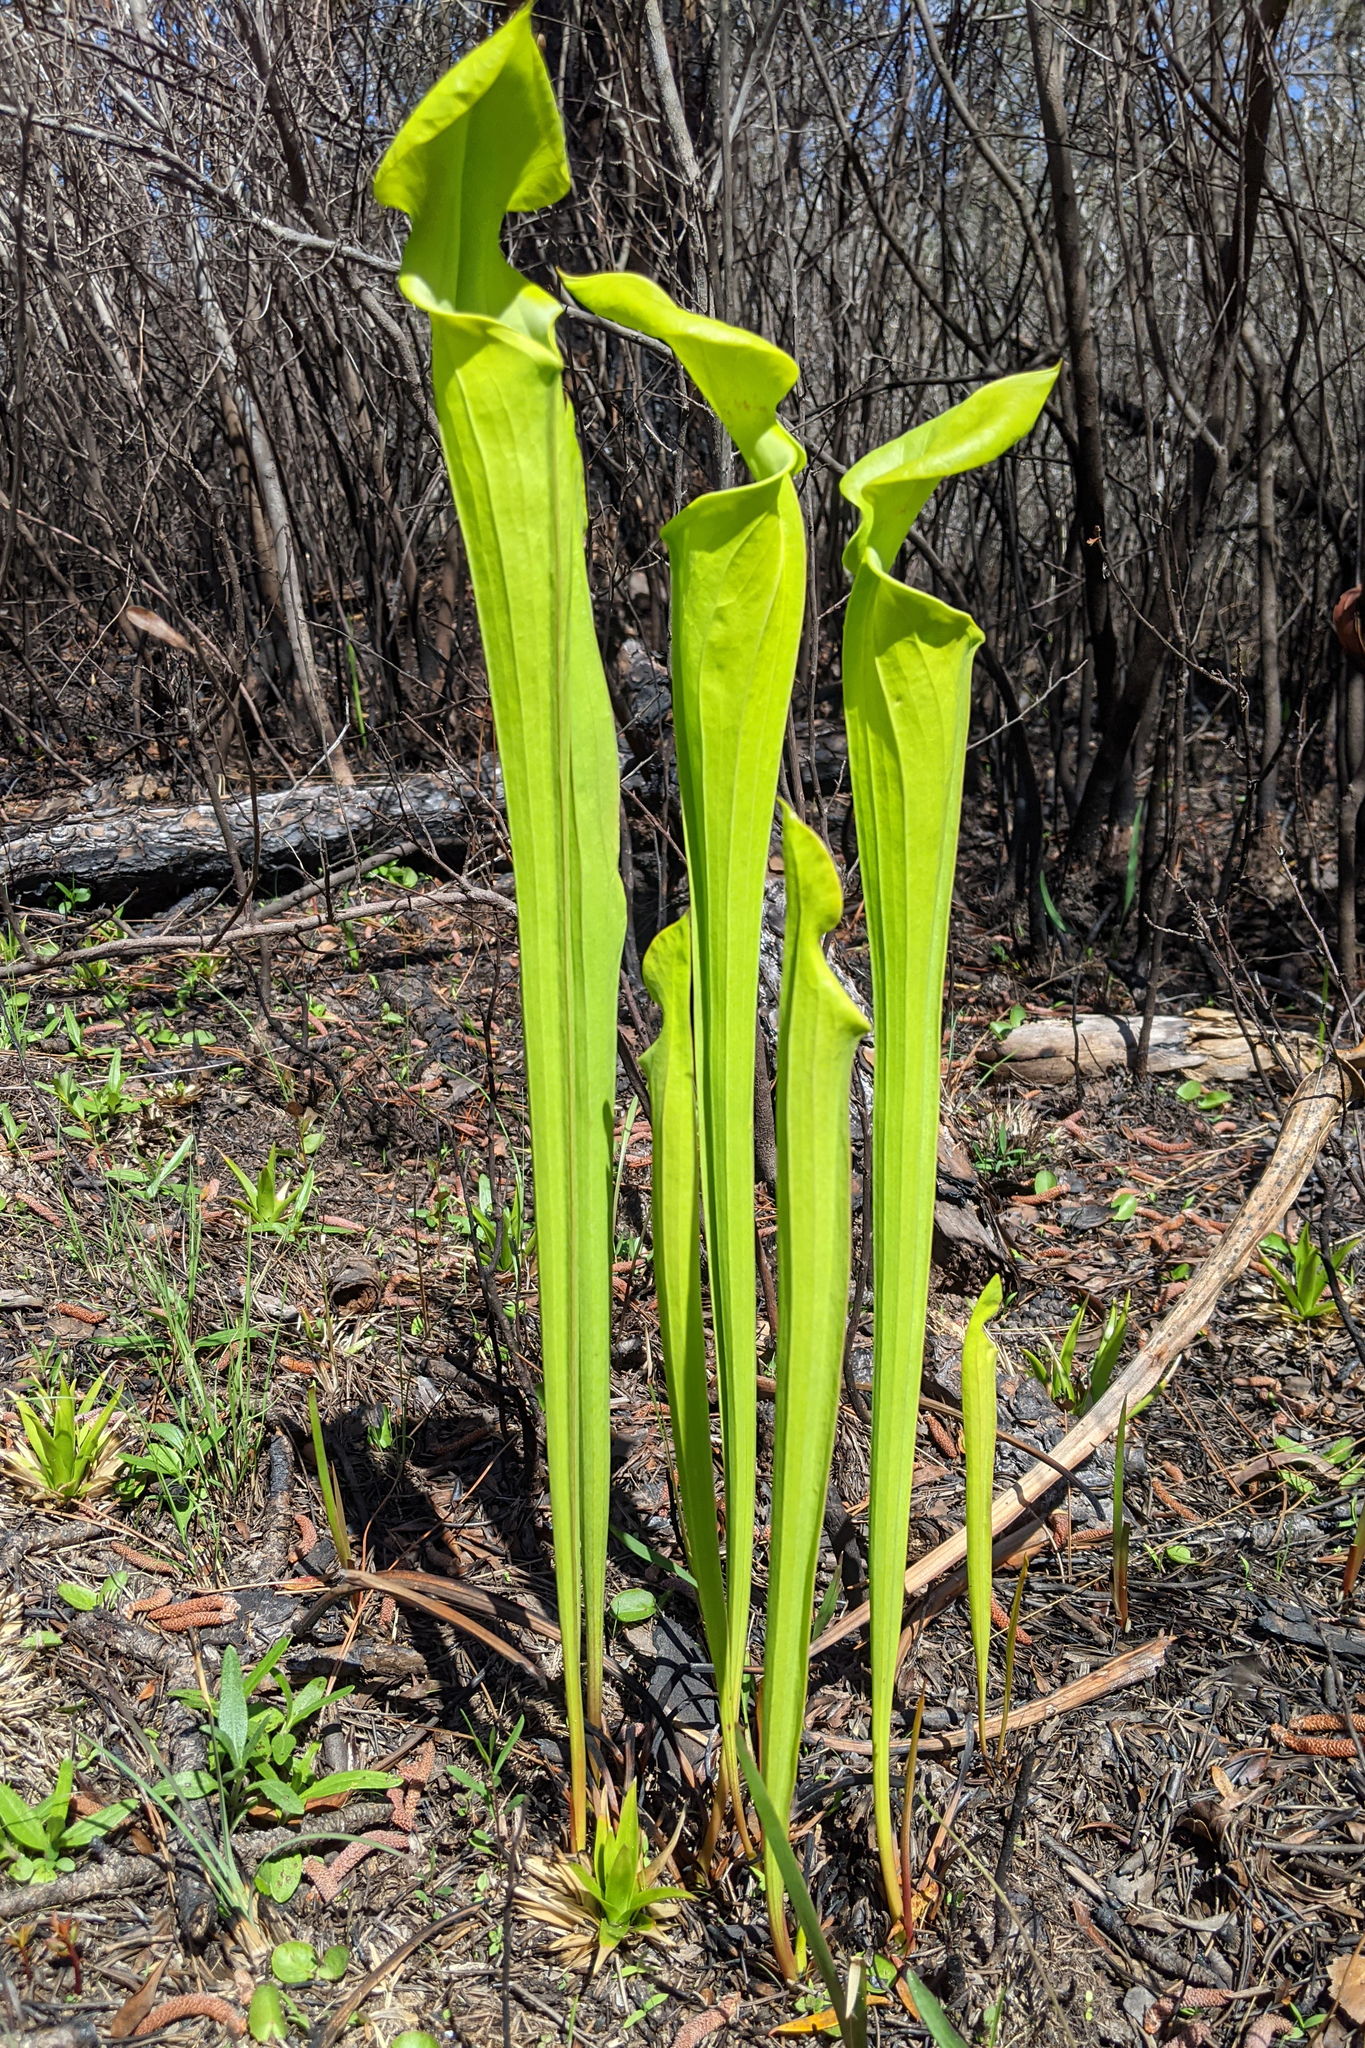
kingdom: Plantae
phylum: Tracheophyta
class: Magnoliopsida
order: Ericales
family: Sarraceniaceae
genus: Sarracenia
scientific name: Sarracenia flava
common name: Trumpets
